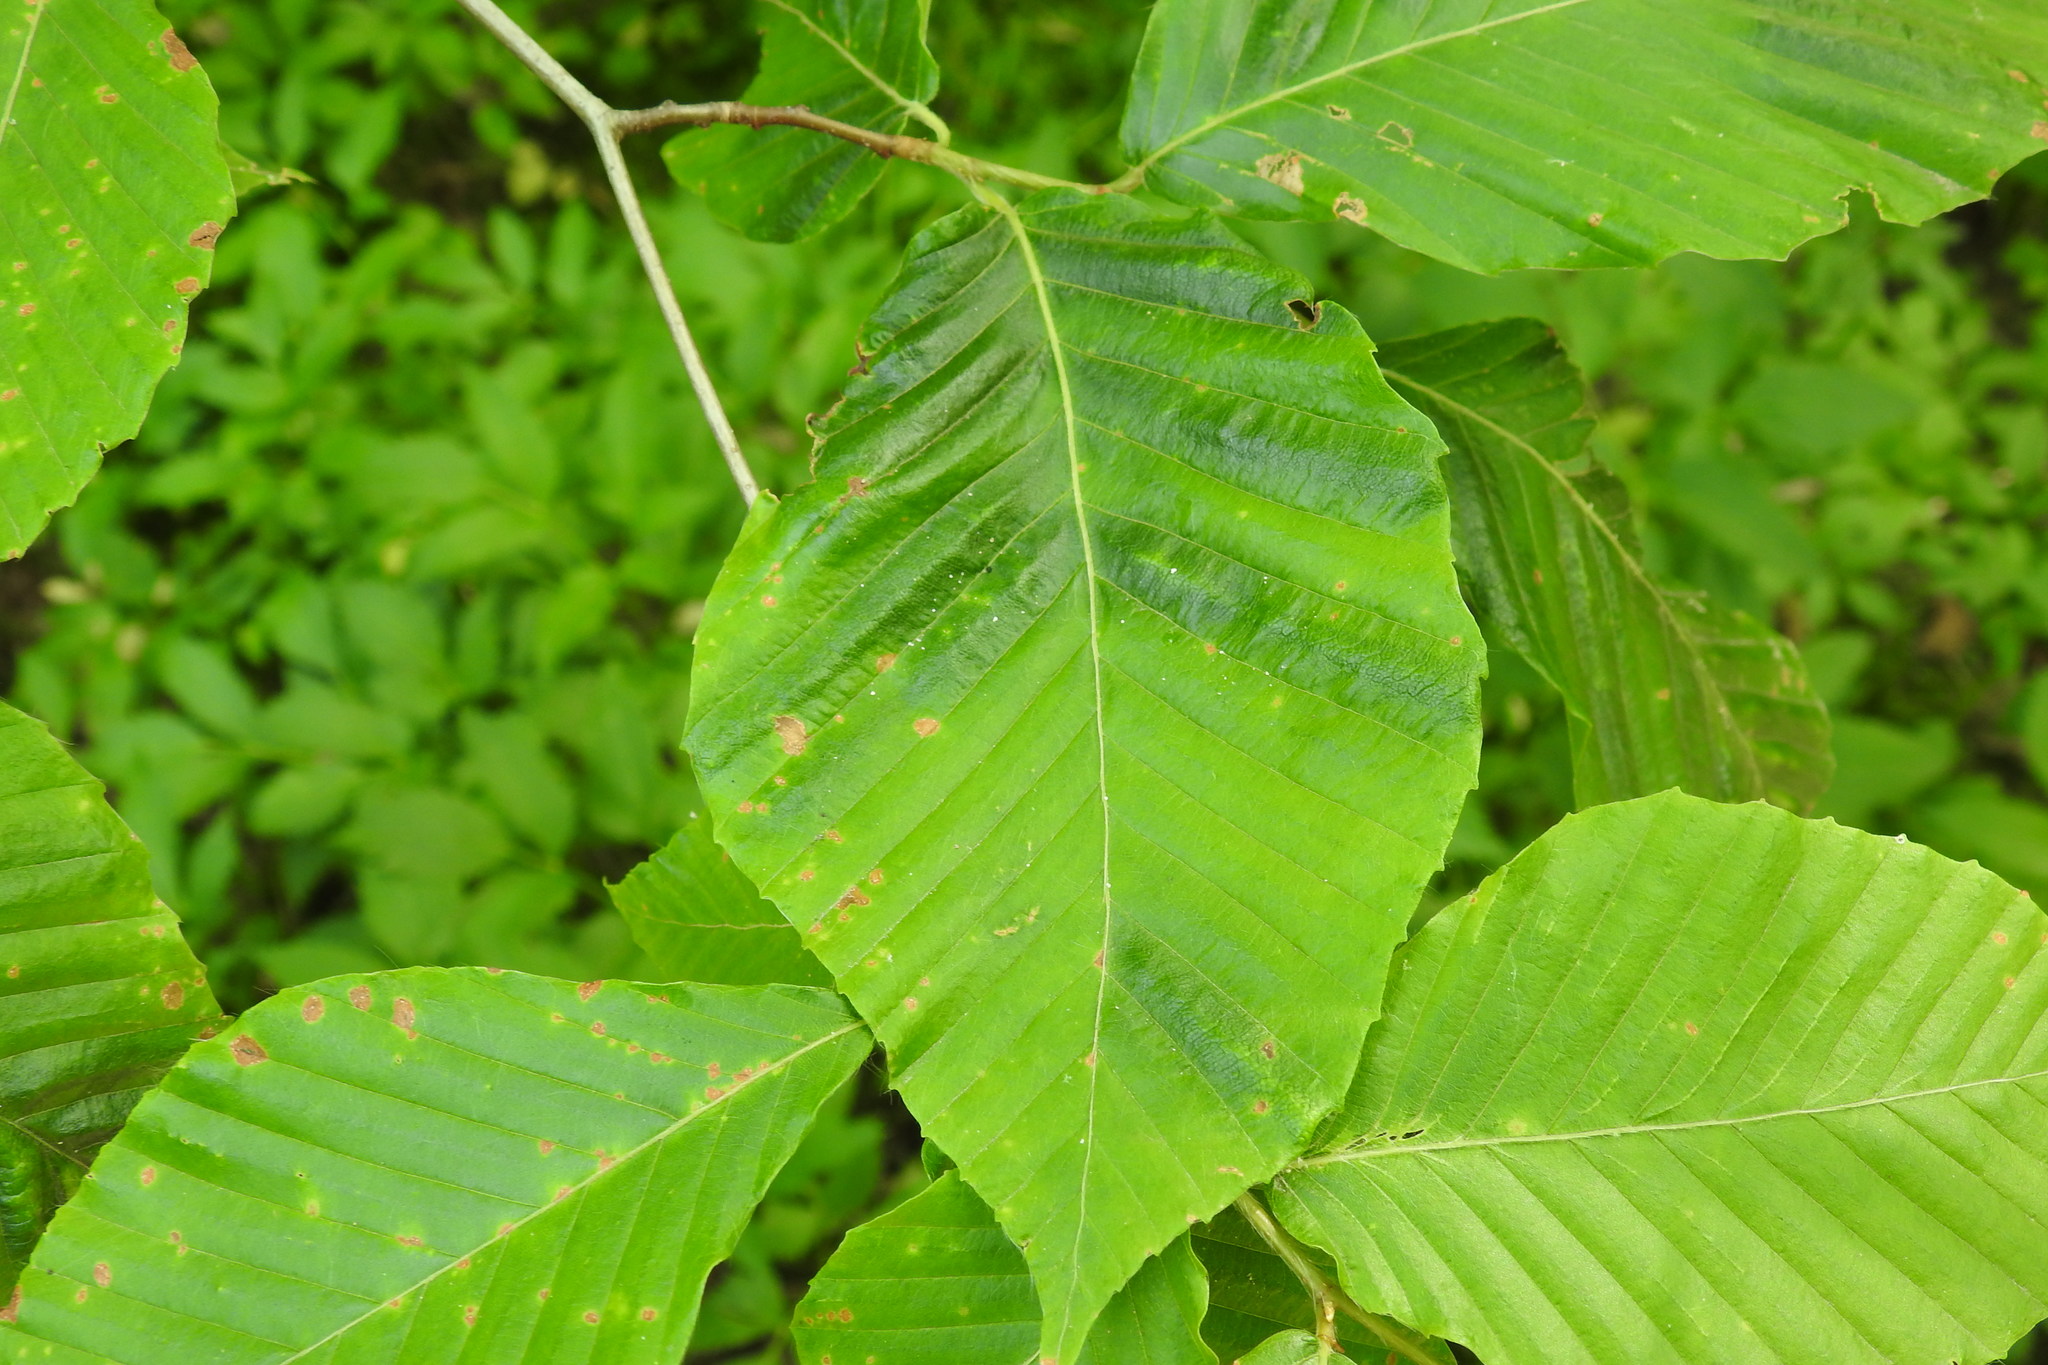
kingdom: Plantae
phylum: Tracheophyta
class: Magnoliopsida
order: Fagales
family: Fagaceae
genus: Fagus
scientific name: Fagus grandifolia
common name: American beech
